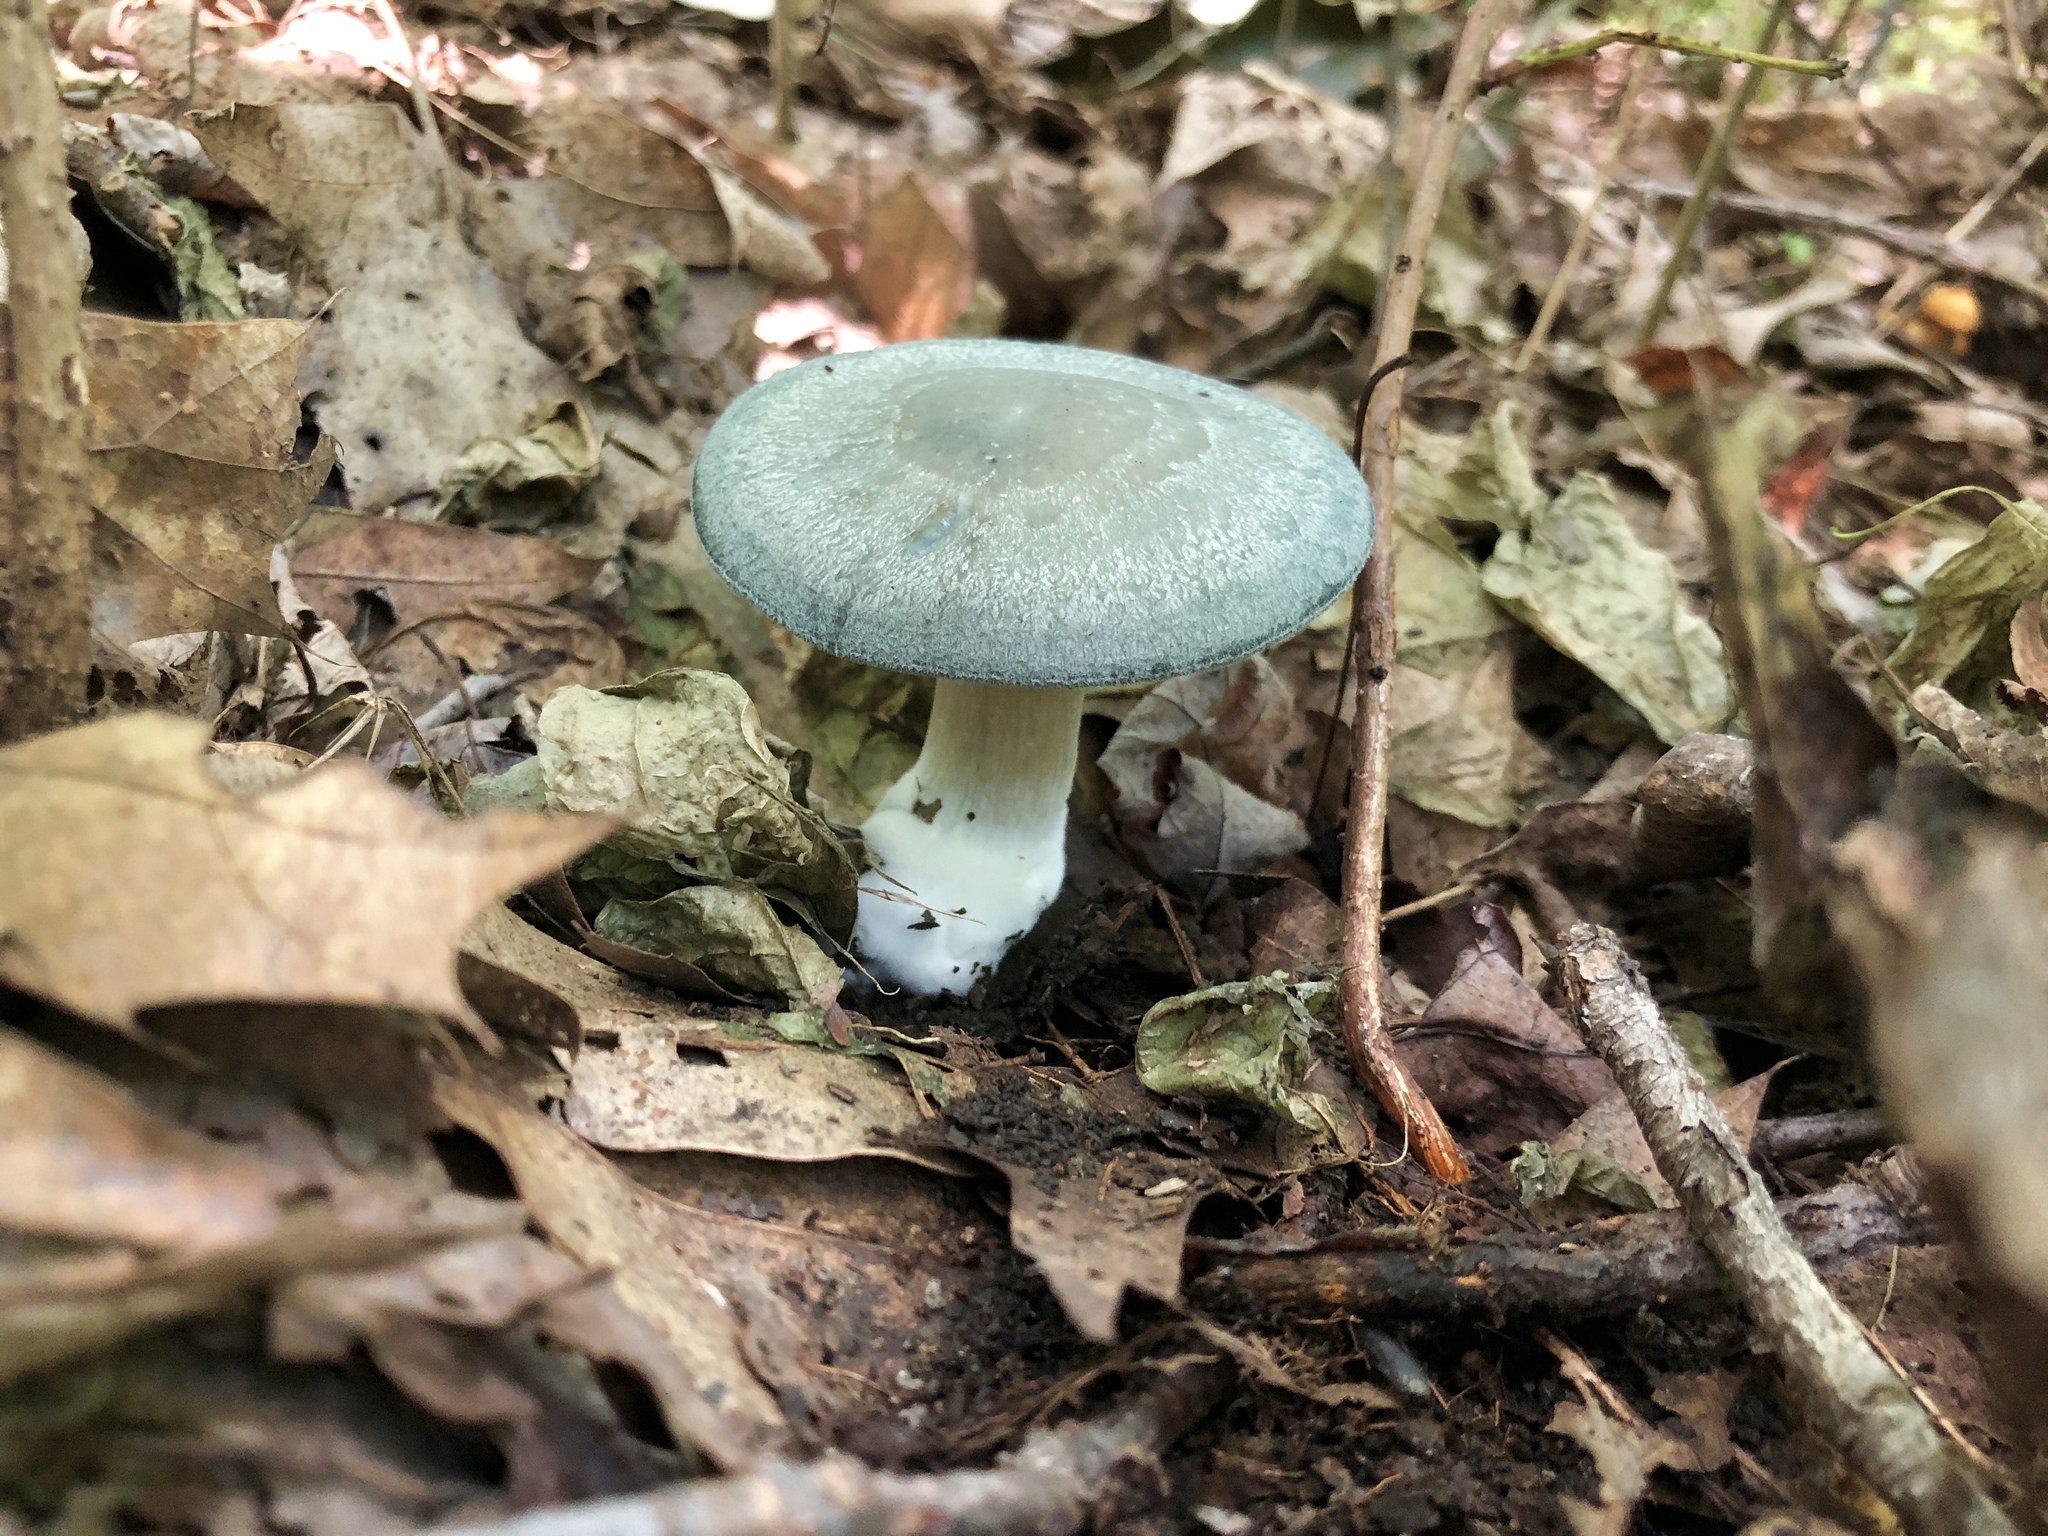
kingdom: Fungi
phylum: Basidiomycota
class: Agaricomycetes
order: Agaricales
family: Tricholomataceae
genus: Collybia
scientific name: Collybia
